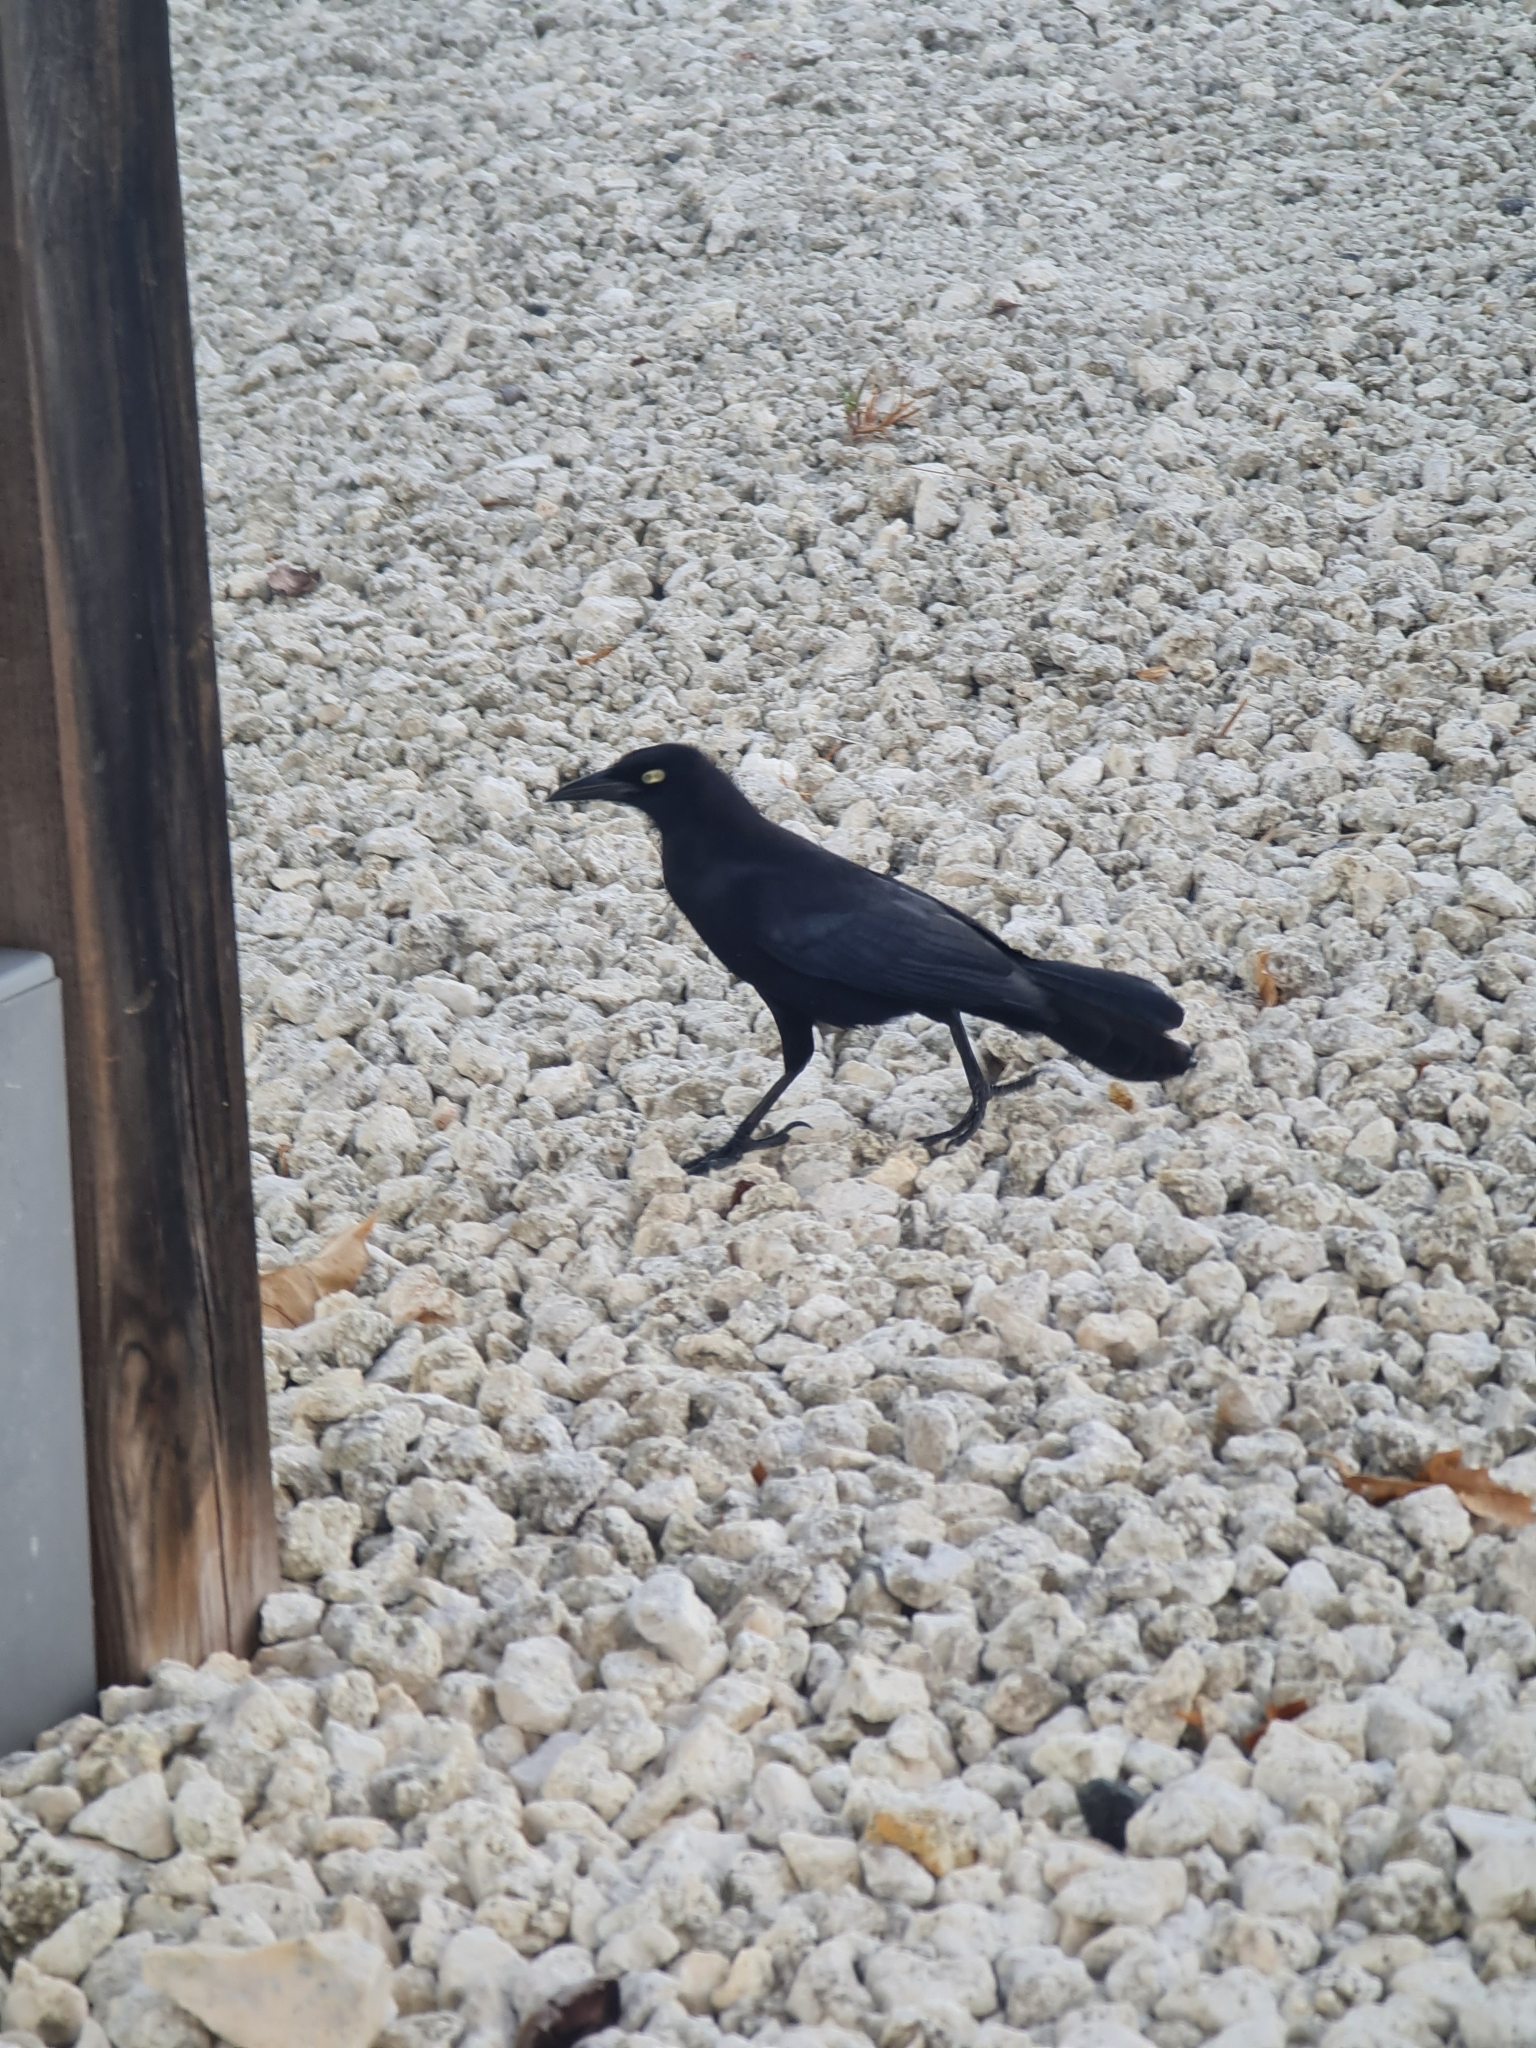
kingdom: Animalia
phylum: Chordata
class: Aves
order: Passeriformes
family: Icteridae
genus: Quiscalus
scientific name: Quiscalus lugubris
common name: Carib grackle
